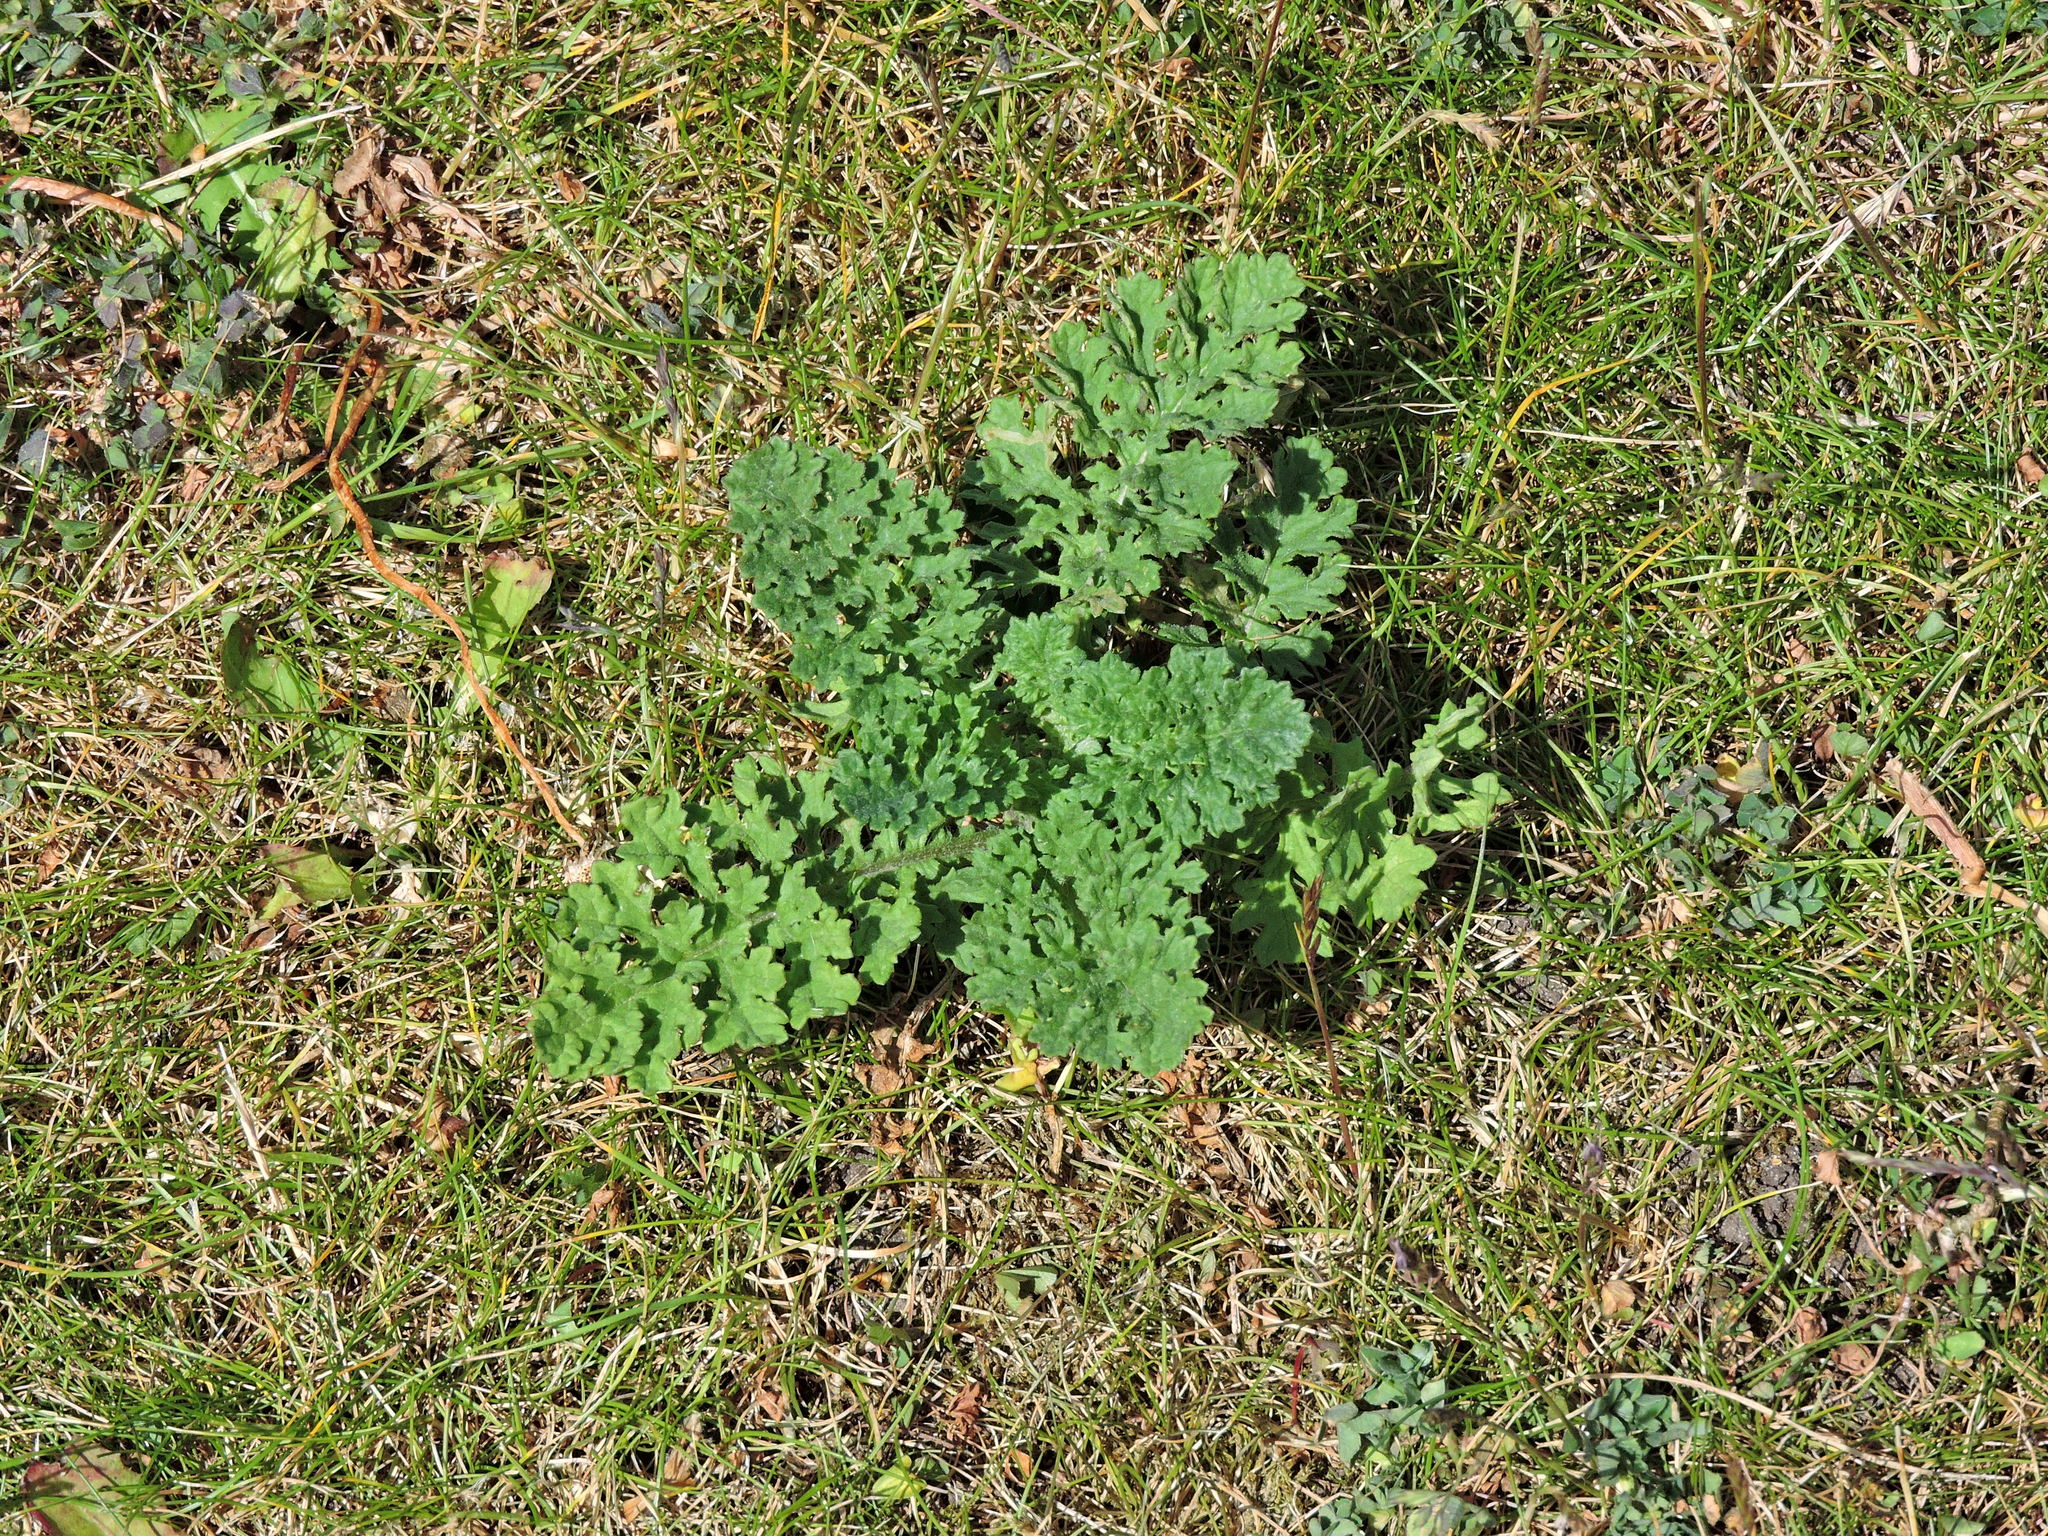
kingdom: Plantae
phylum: Tracheophyta
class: Magnoliopsida
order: Asterales
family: Asteraceae
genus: Jacobaea
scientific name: Jacobaea vulgaris
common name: Stinking willie
